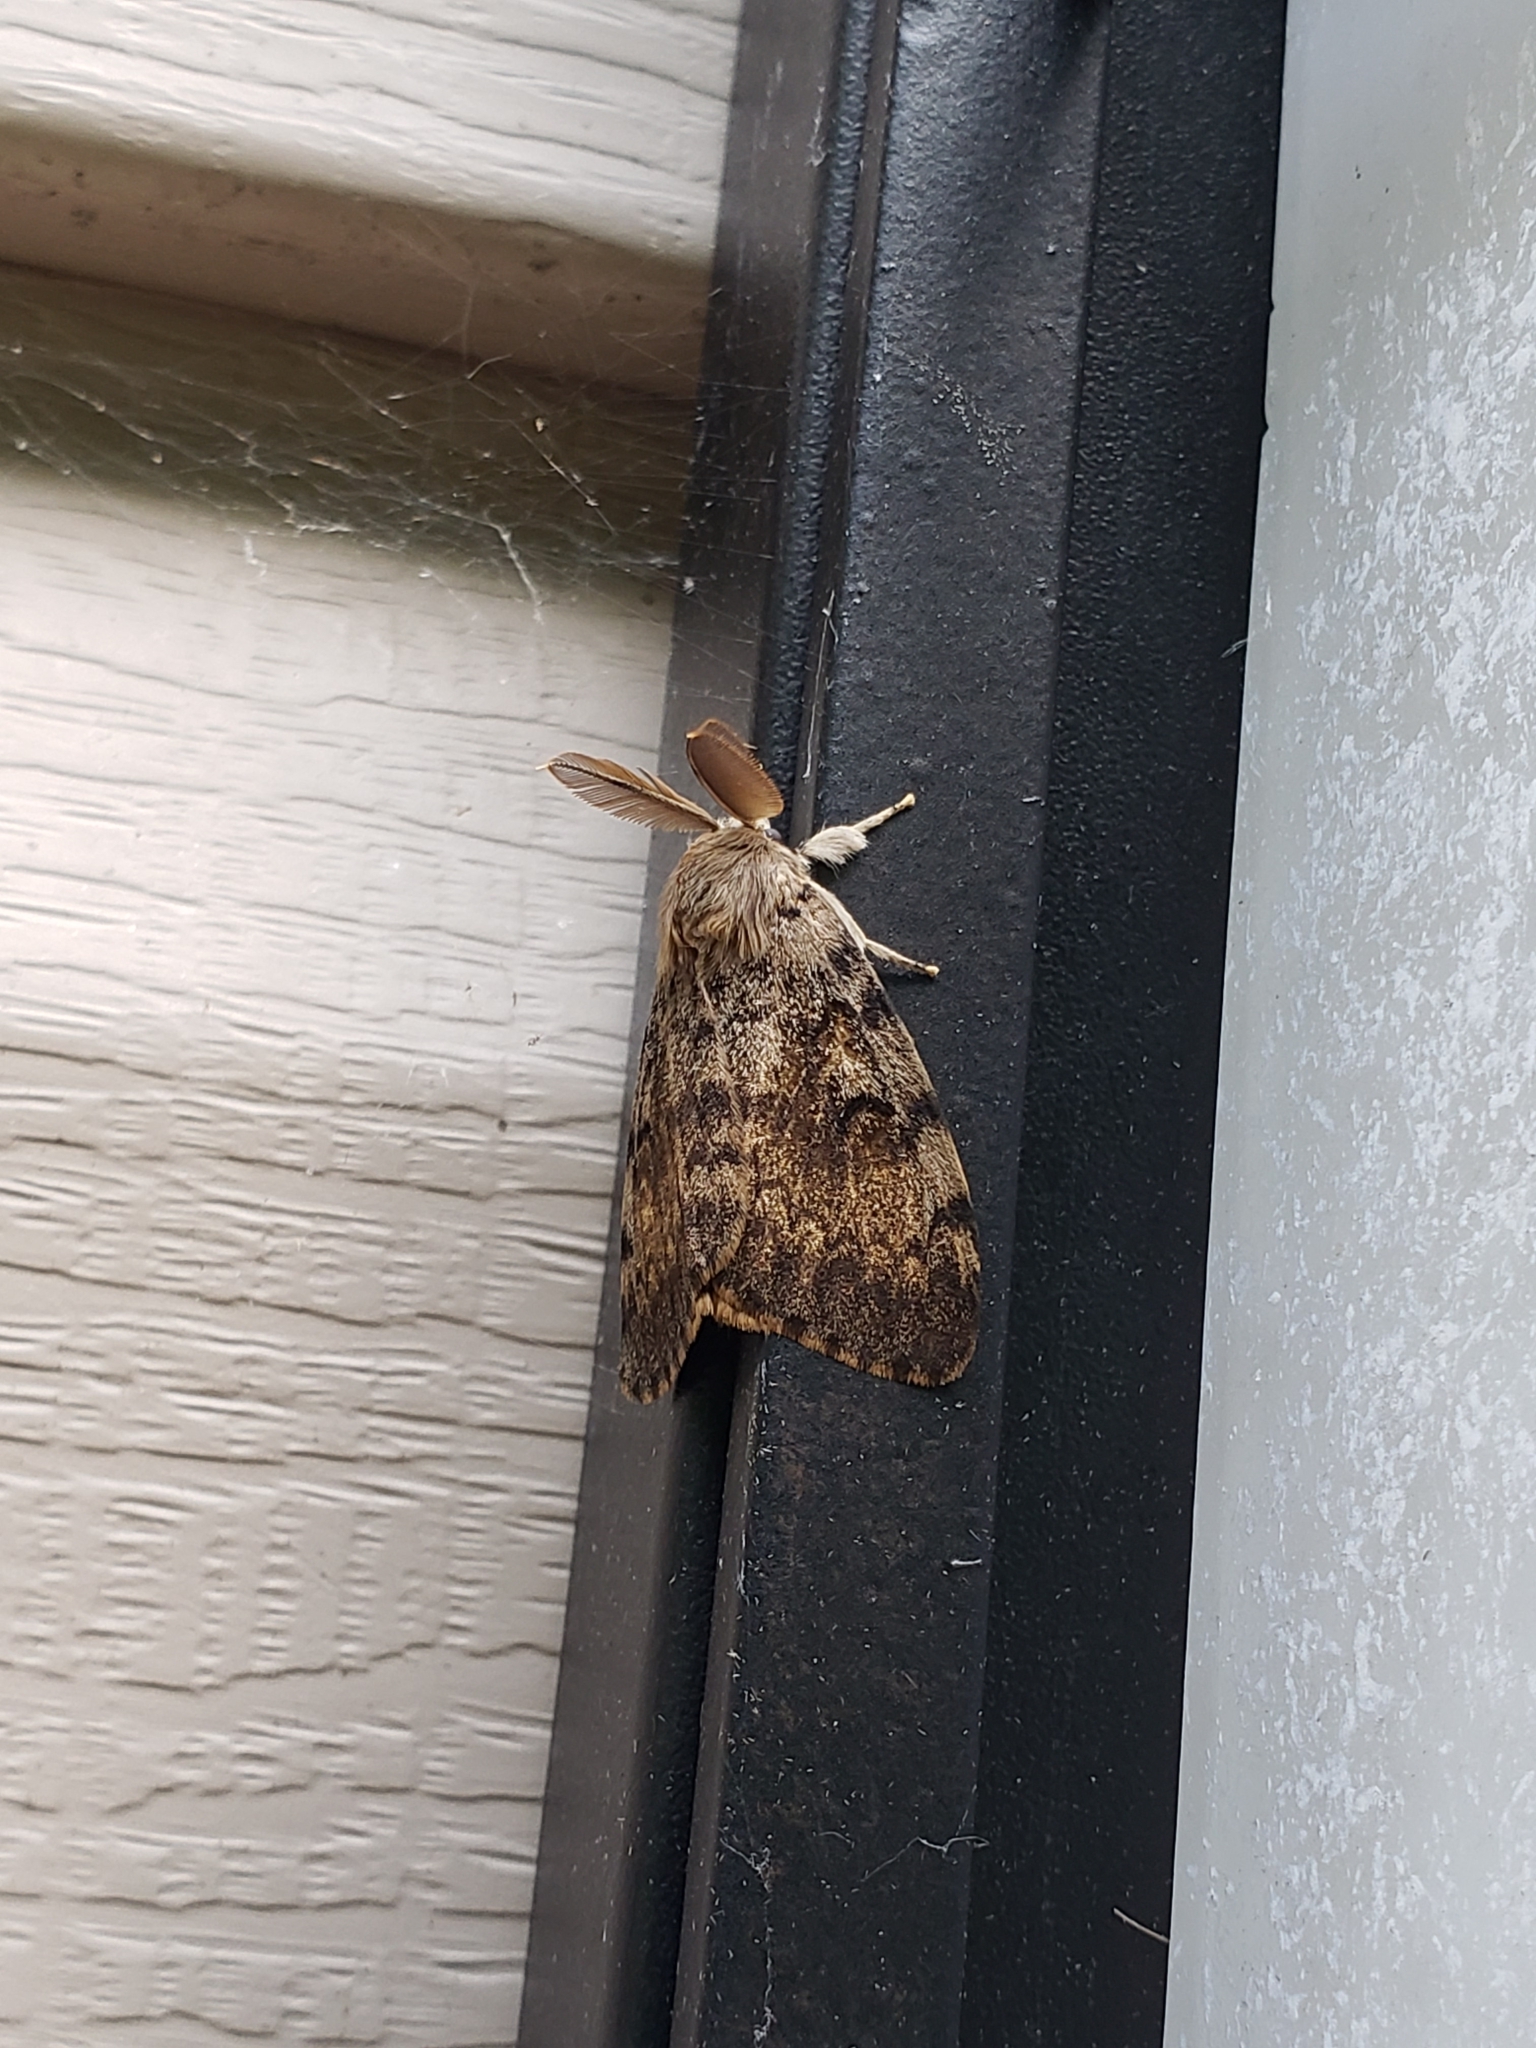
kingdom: Animalia
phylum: Arthropoda
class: Insecta
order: Lepidoptera
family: Erebidae
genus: Lymantria
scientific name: Lymantria dispar
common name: Gypsy moth
